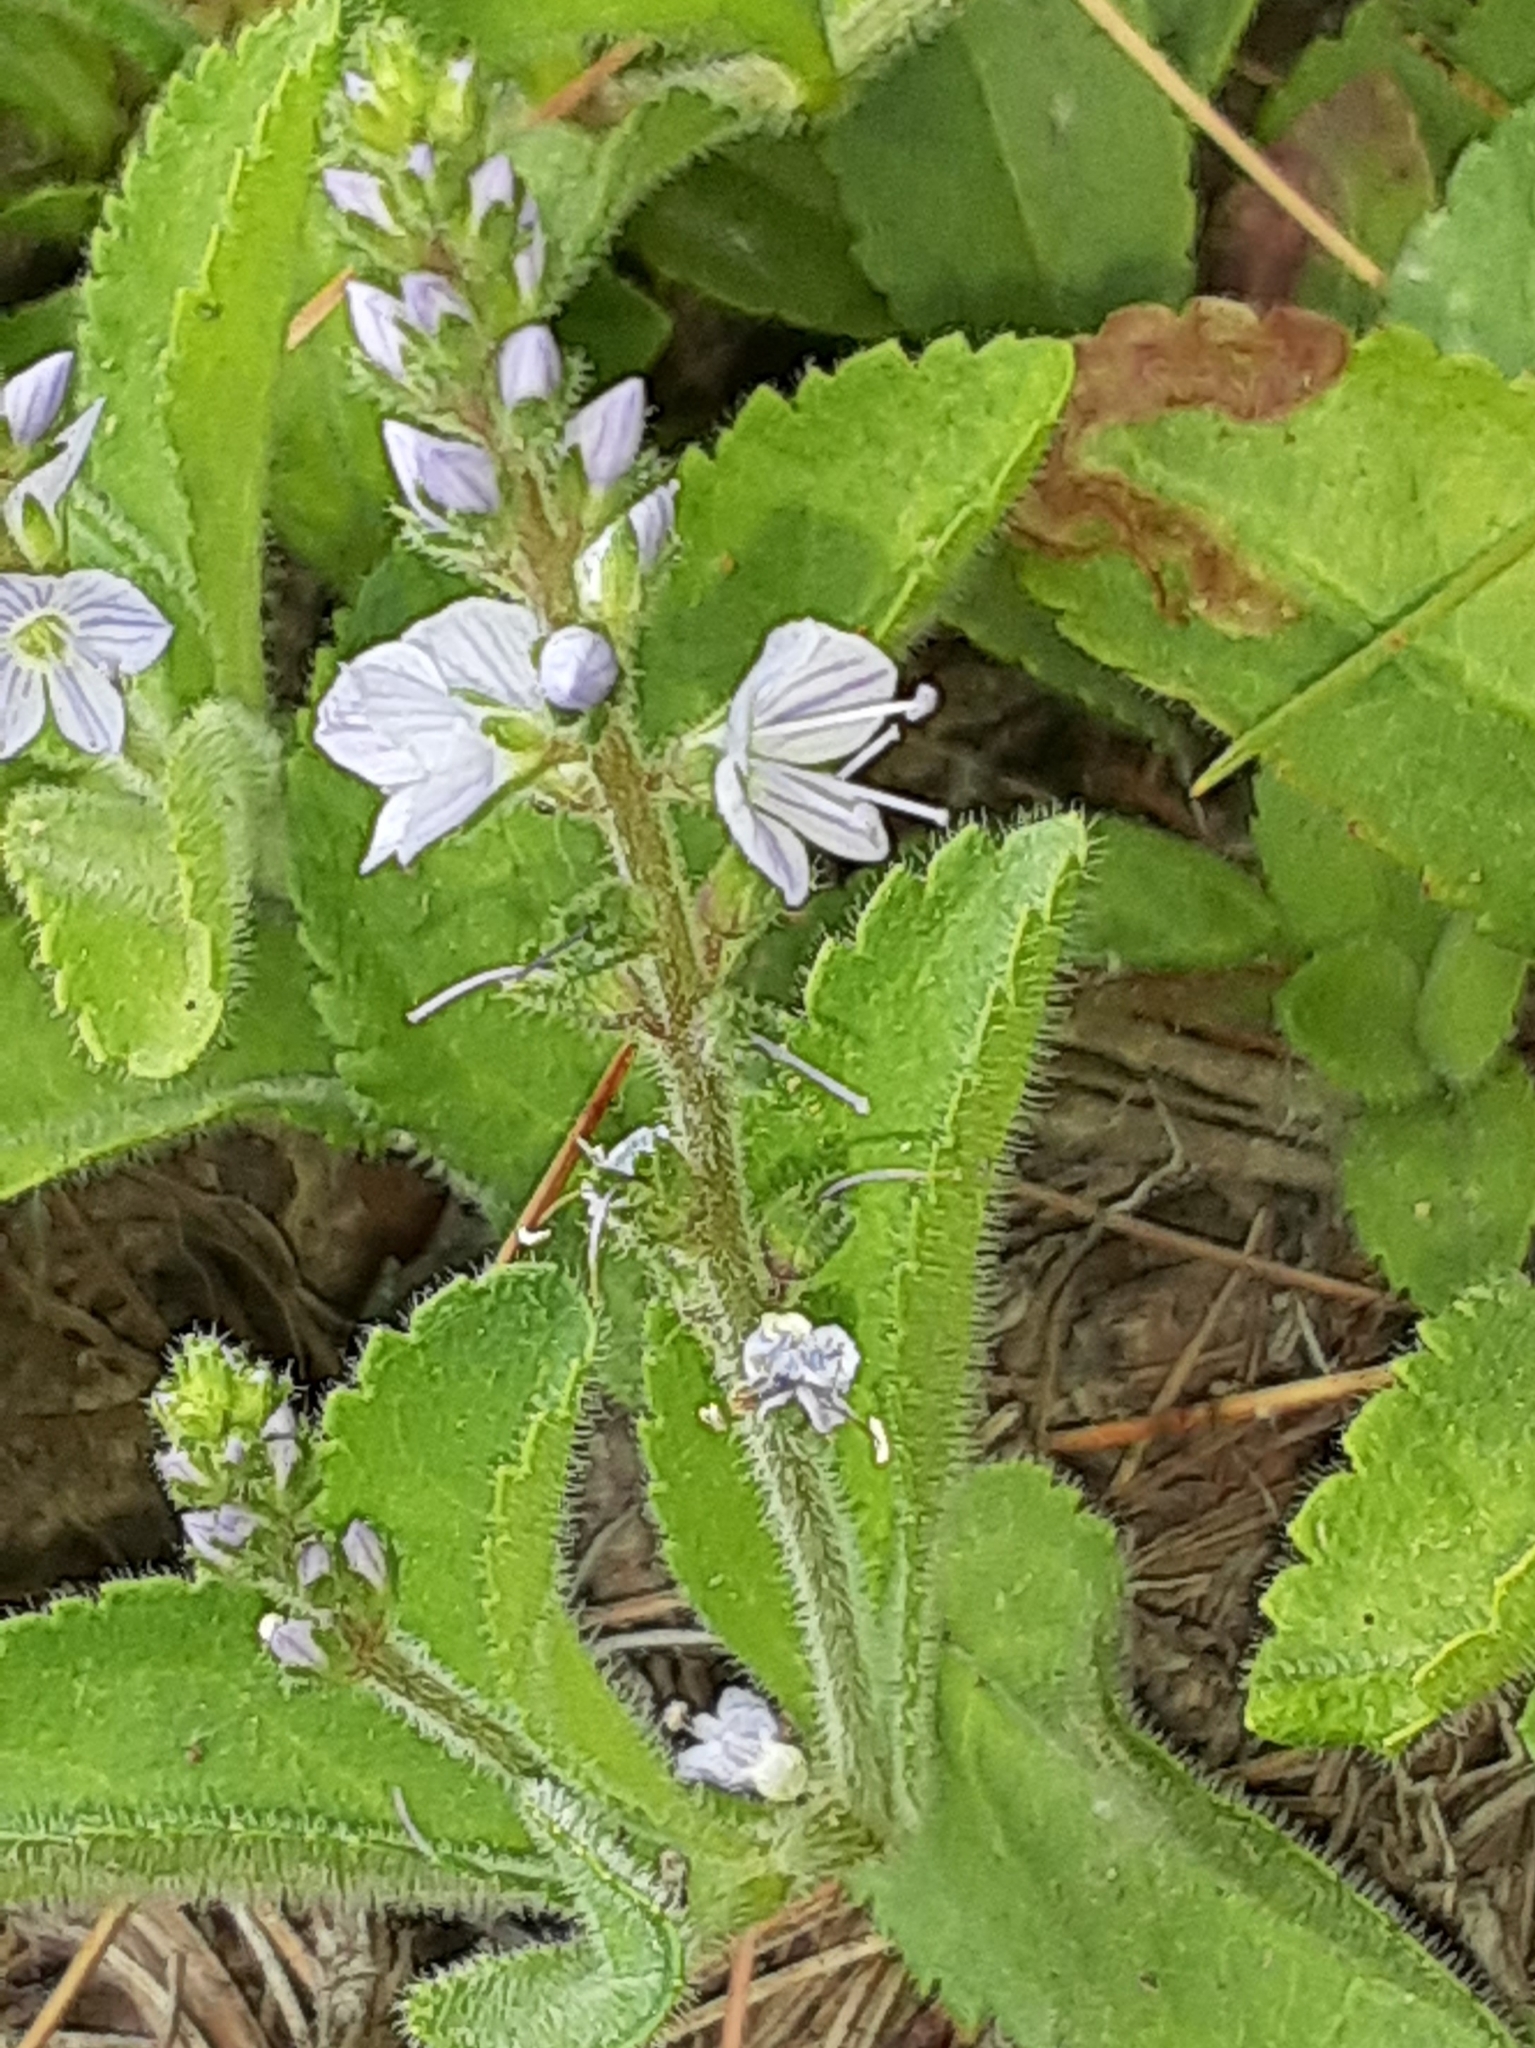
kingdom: Plantae
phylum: Tracheophyta
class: Magnoliopsida
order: Lamiales
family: Plantaginaceae
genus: Veronica
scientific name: Veronica officinalis
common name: Common speedwell
